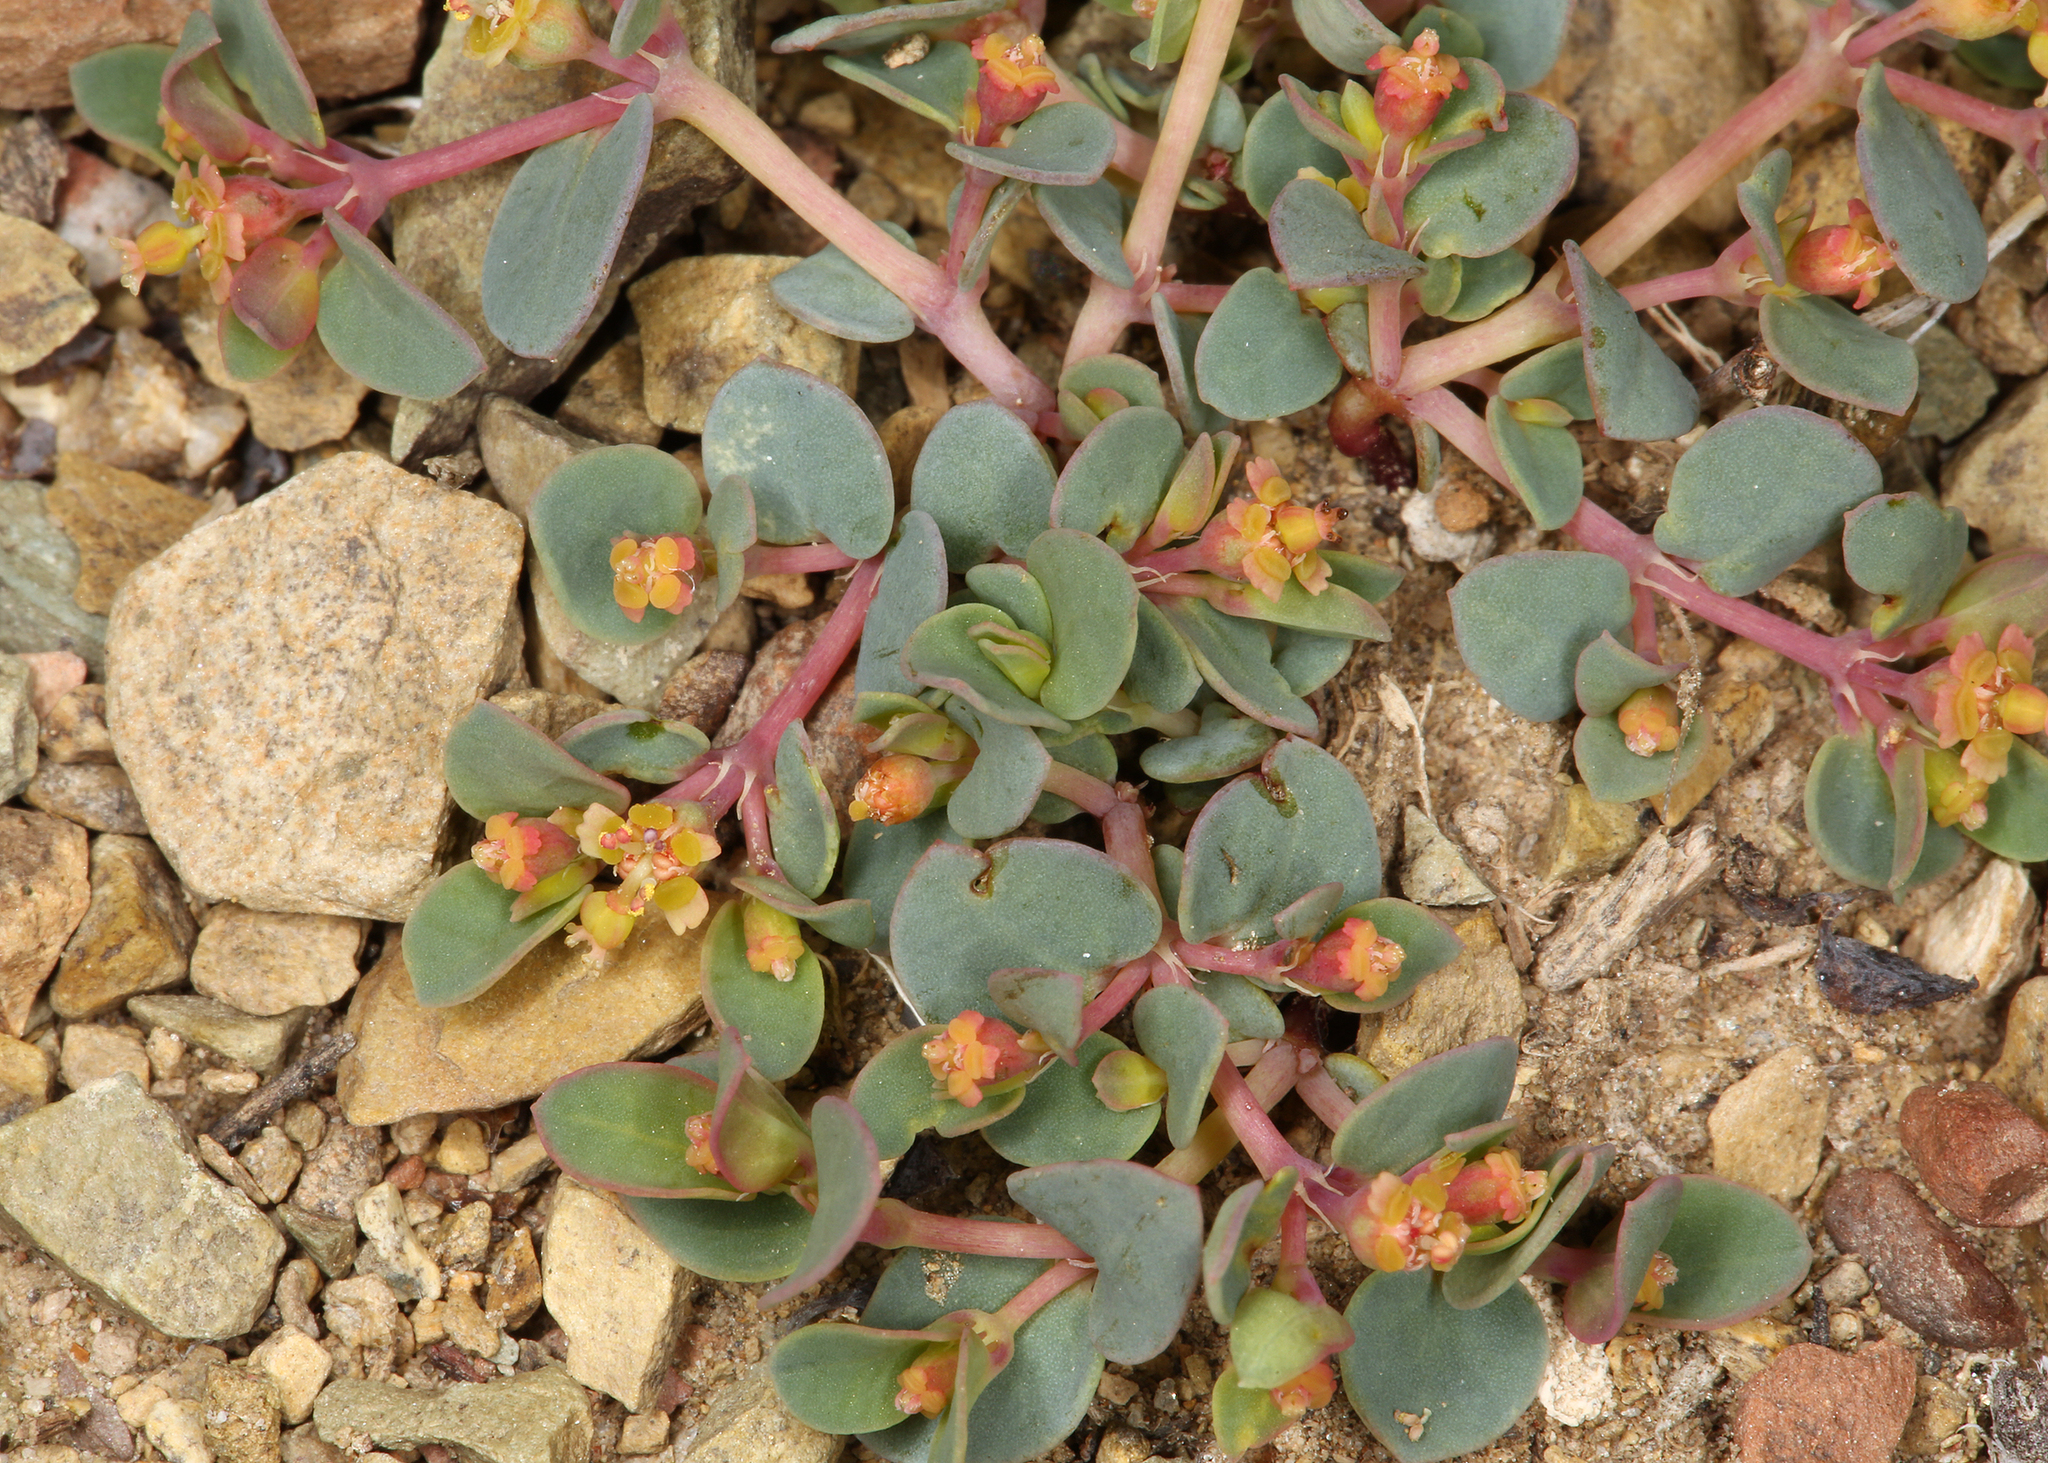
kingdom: Plantae
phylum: Tracheophyta
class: Magnoliopsida
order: Malpighiales
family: Euphorbiaceae
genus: Euphorbia
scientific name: Euphorbia fendleri
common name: Fendler's euphorbia
